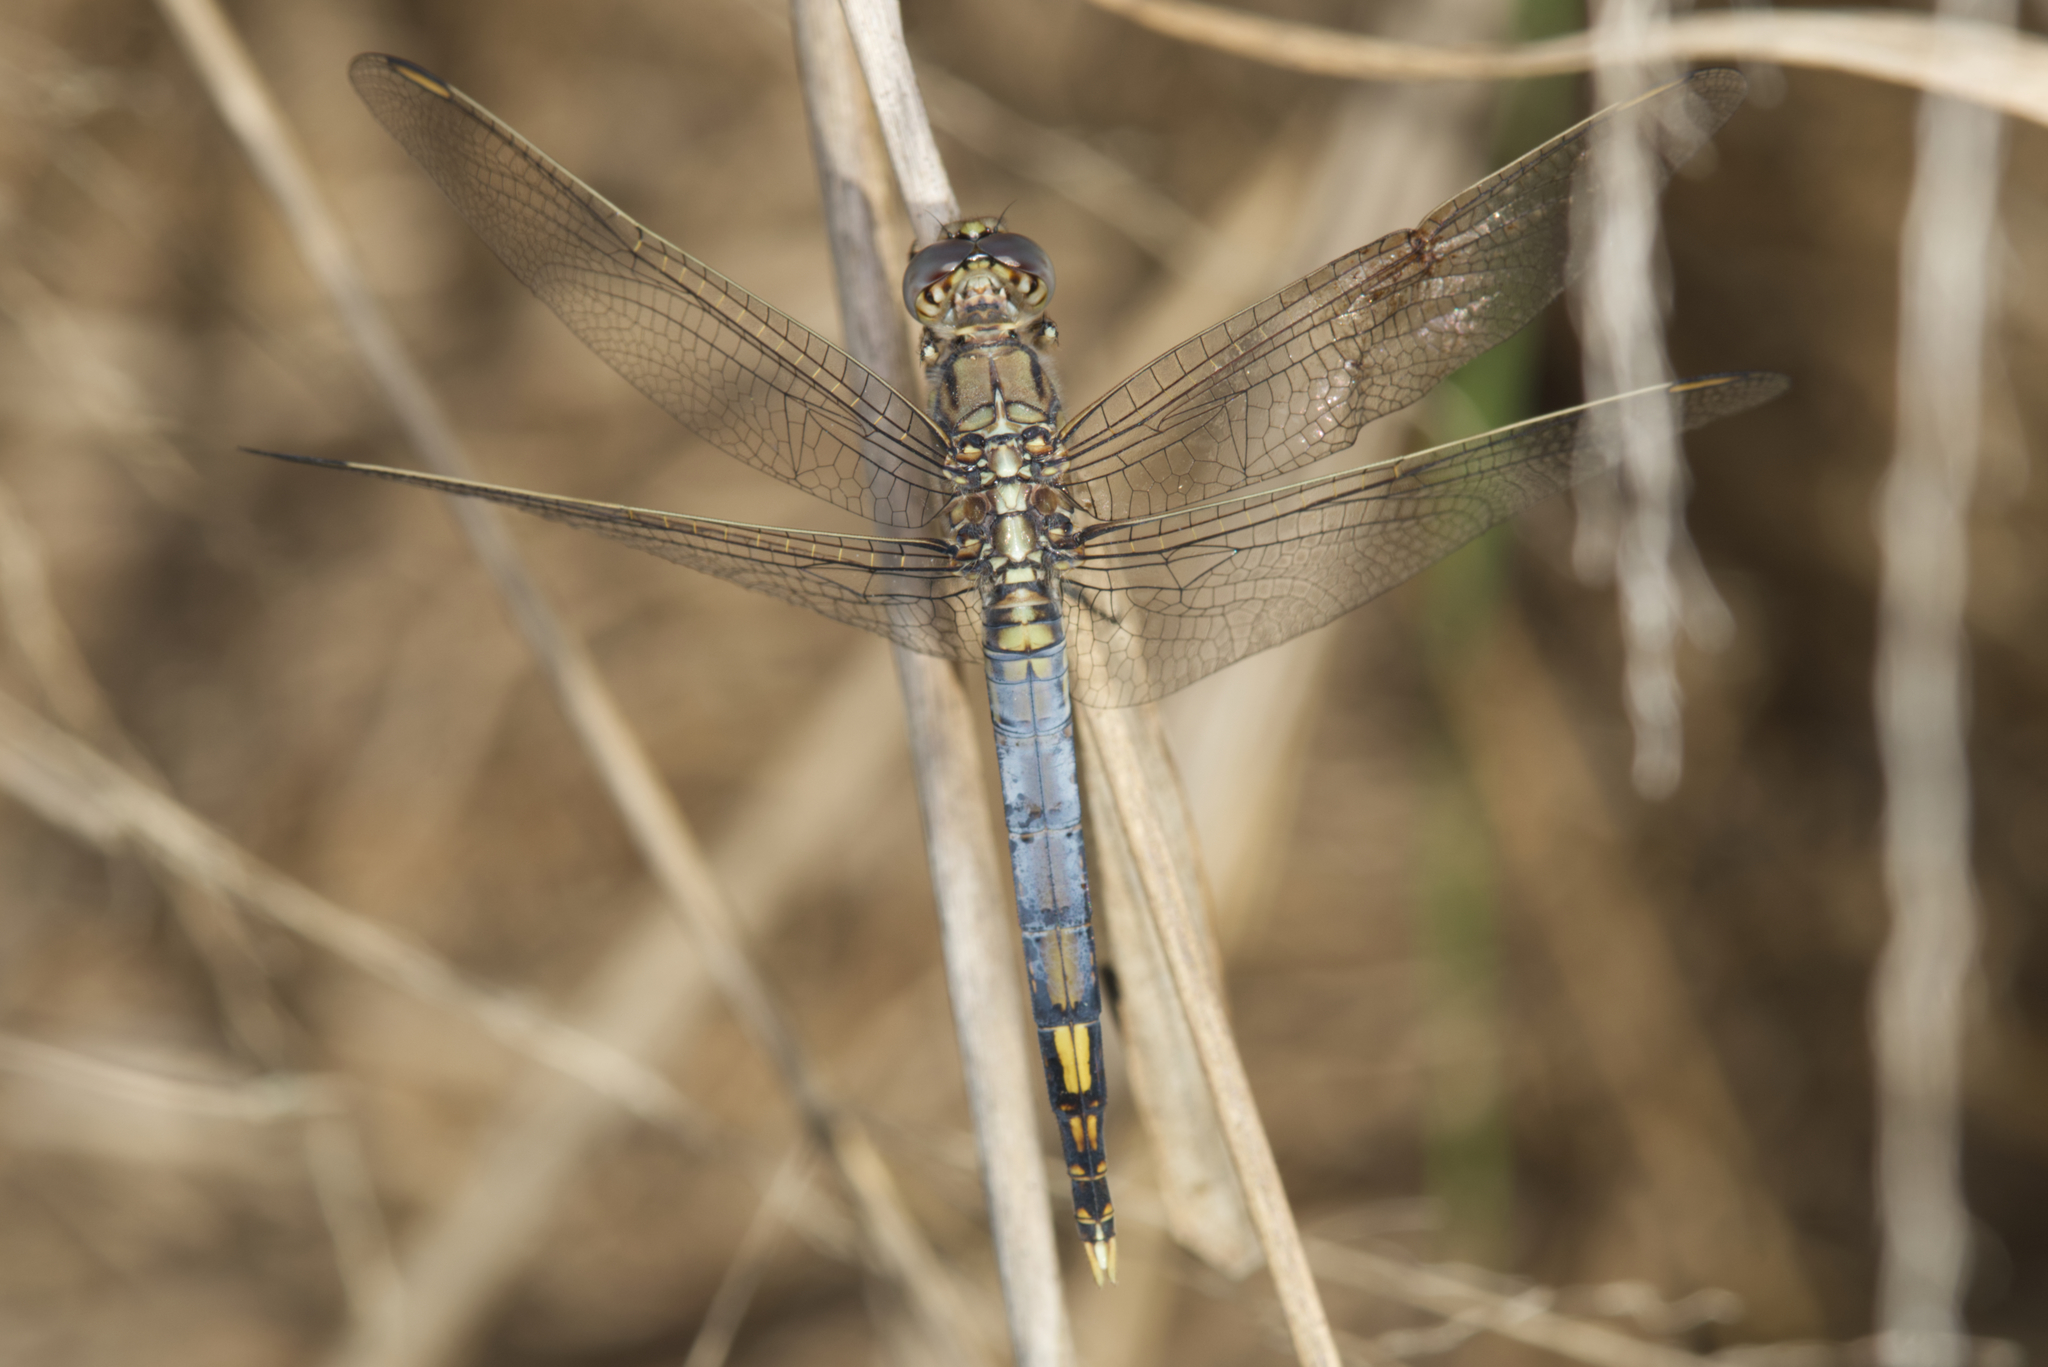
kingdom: Animalia
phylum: Arthropoda
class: Insecta
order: Odonata
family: Libellulidae
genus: Orthetrum
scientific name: Orthetrum caledonicum
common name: Blue skimmer
